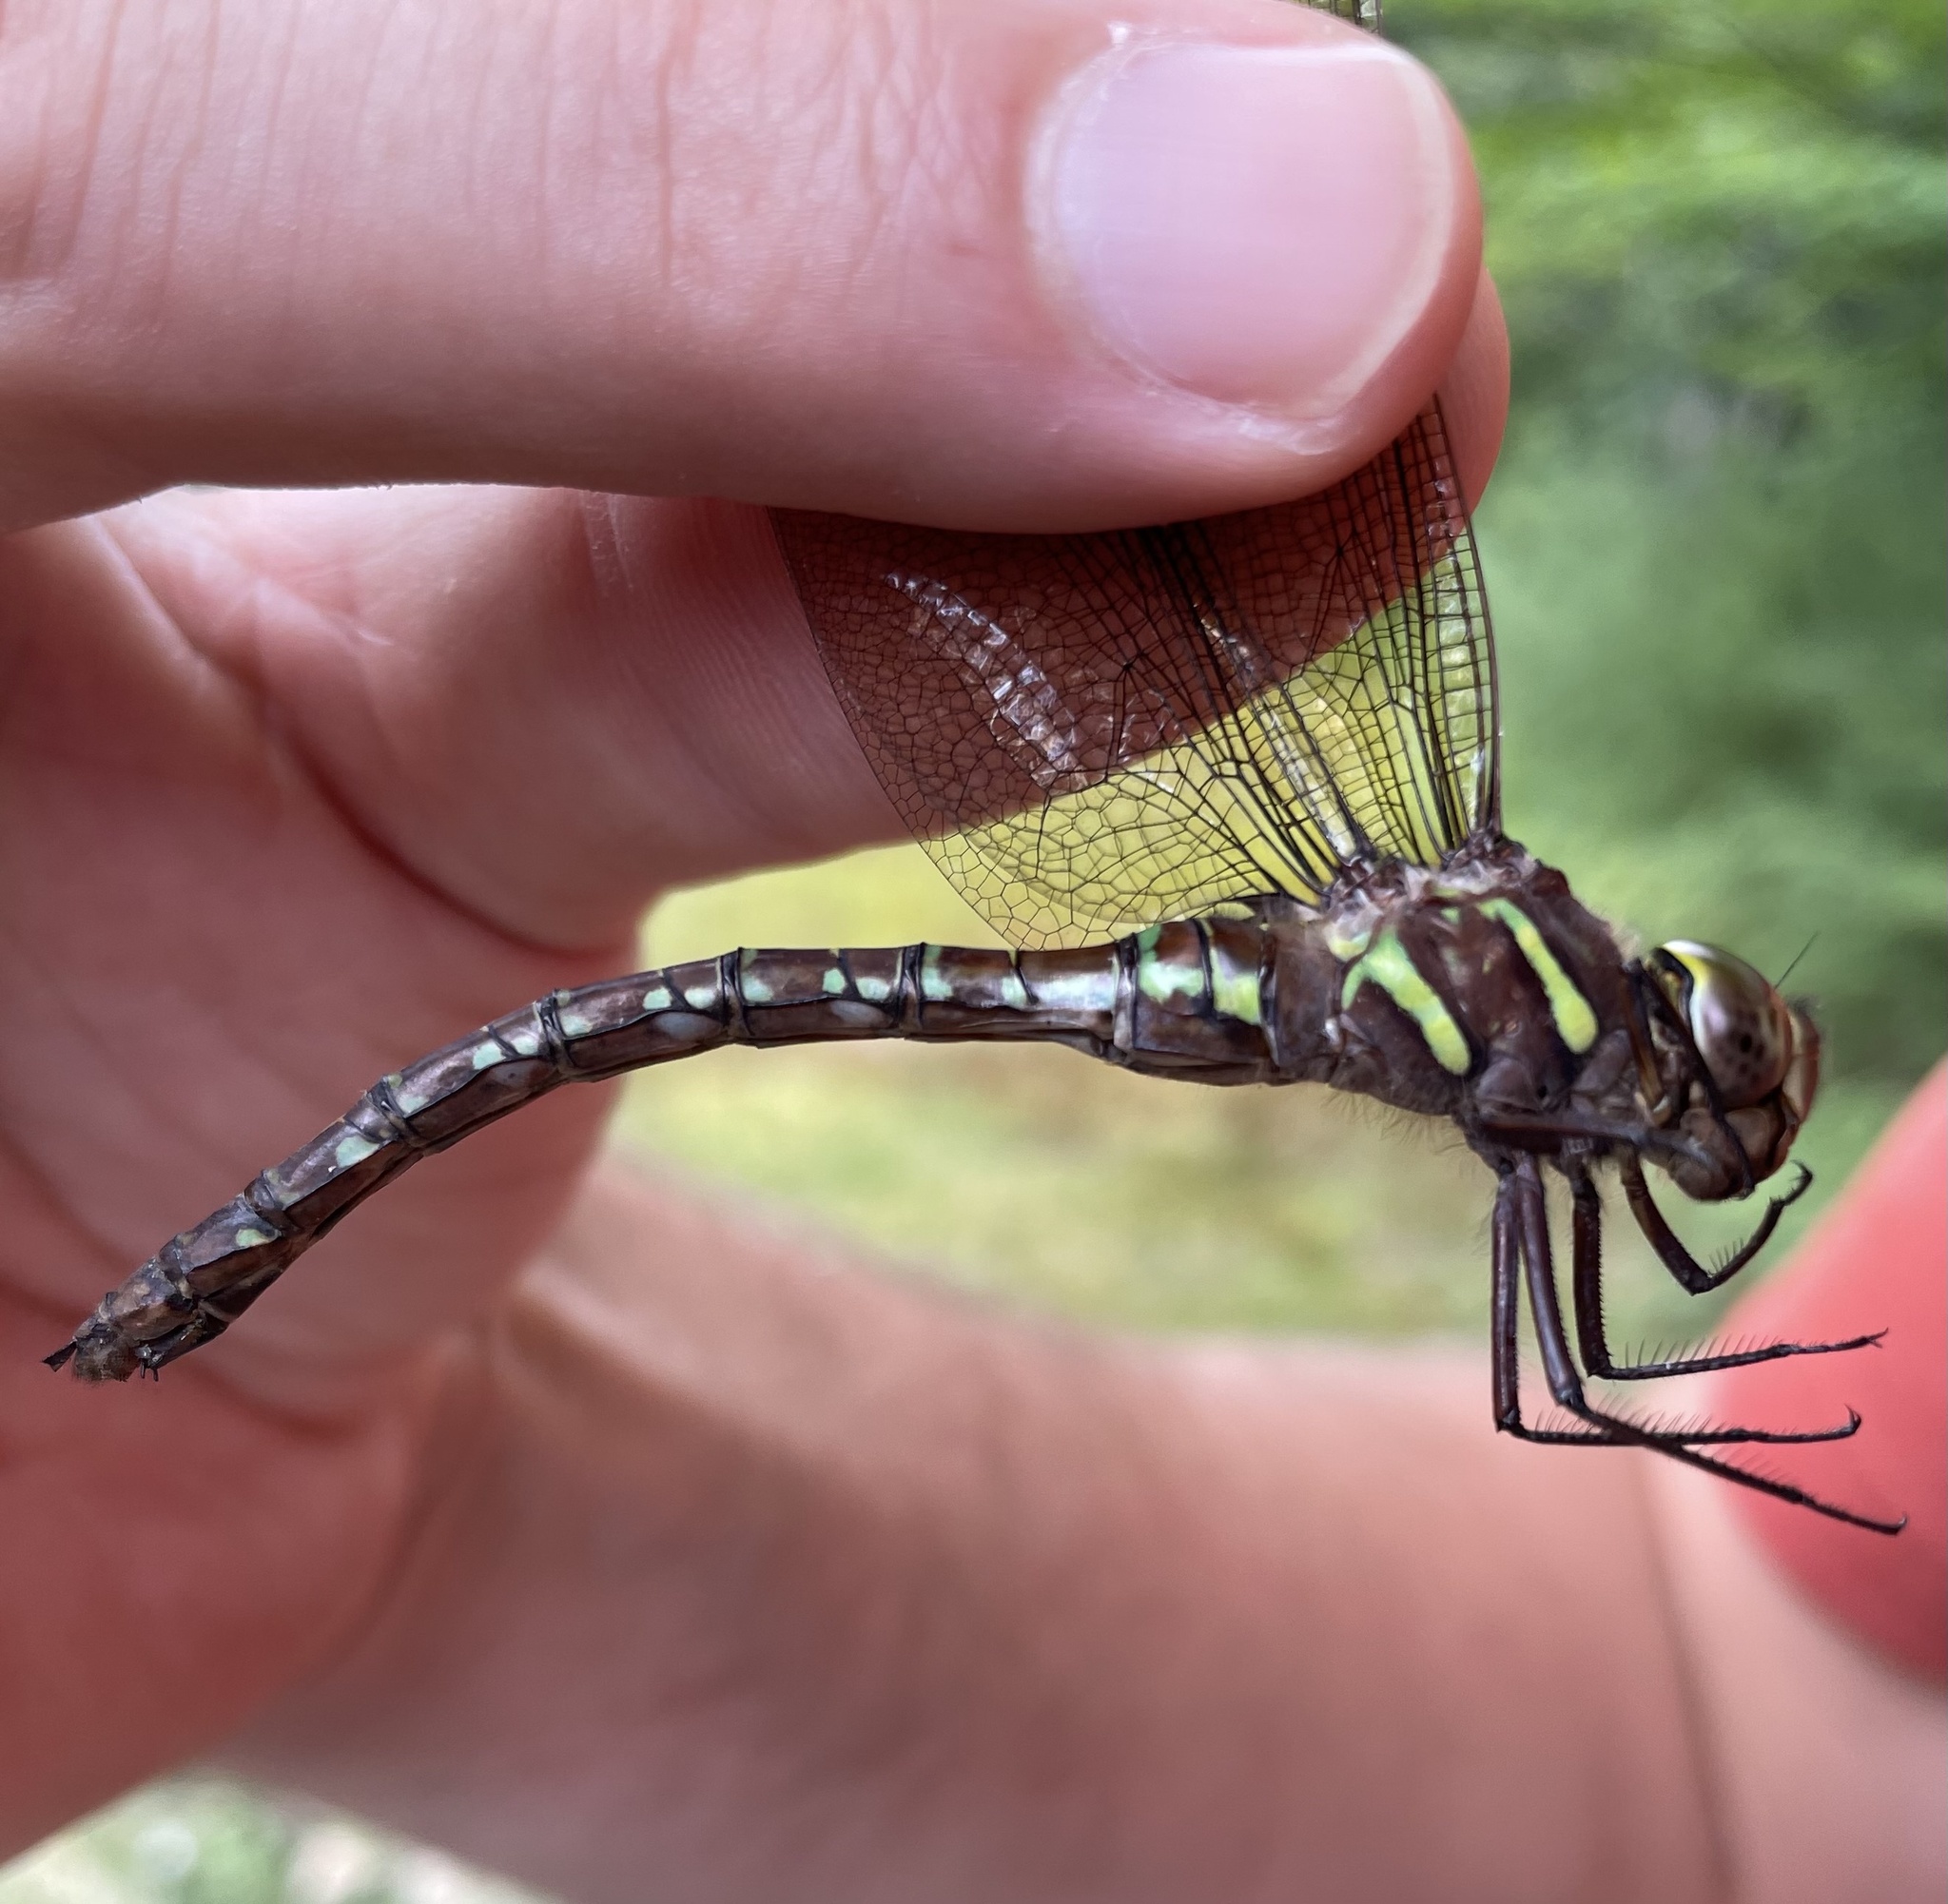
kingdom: Animalia
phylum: Arthropoda
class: Insecta
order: Odonata
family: Aeshnidae
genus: Aeshna
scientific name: Aeshna umbrosa
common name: Shadow darner
